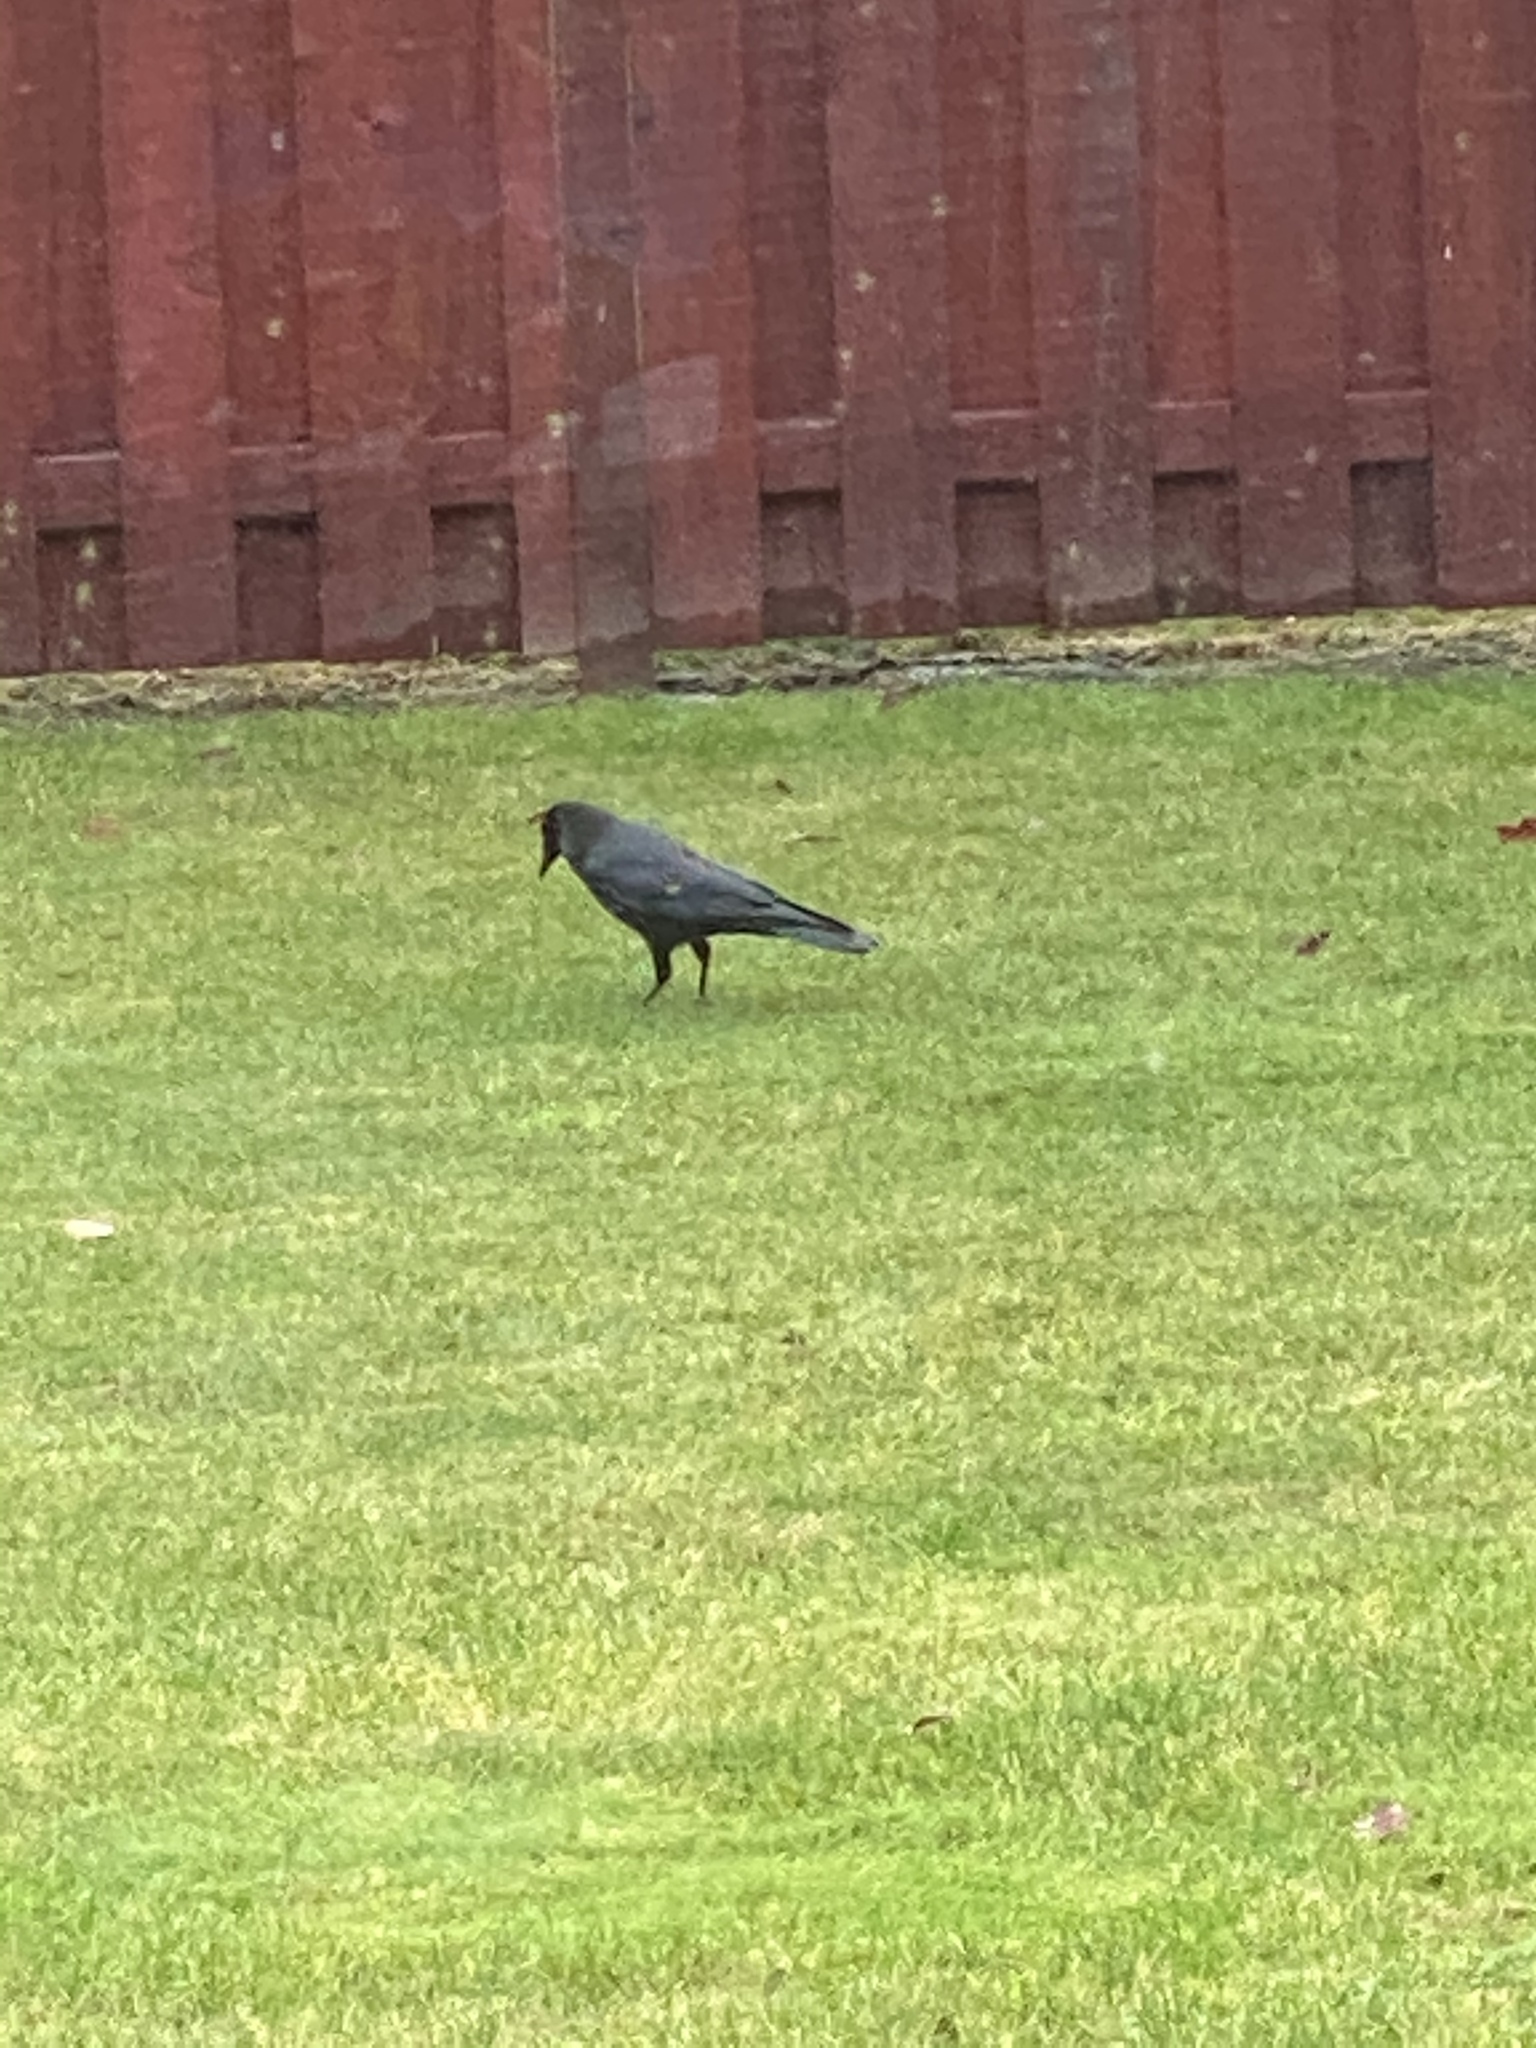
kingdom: Animalia
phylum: Chordata
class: Aves
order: Passeriformes
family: Corvidae
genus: Corvus
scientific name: Corvus brachyrhynchos
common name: American crow
